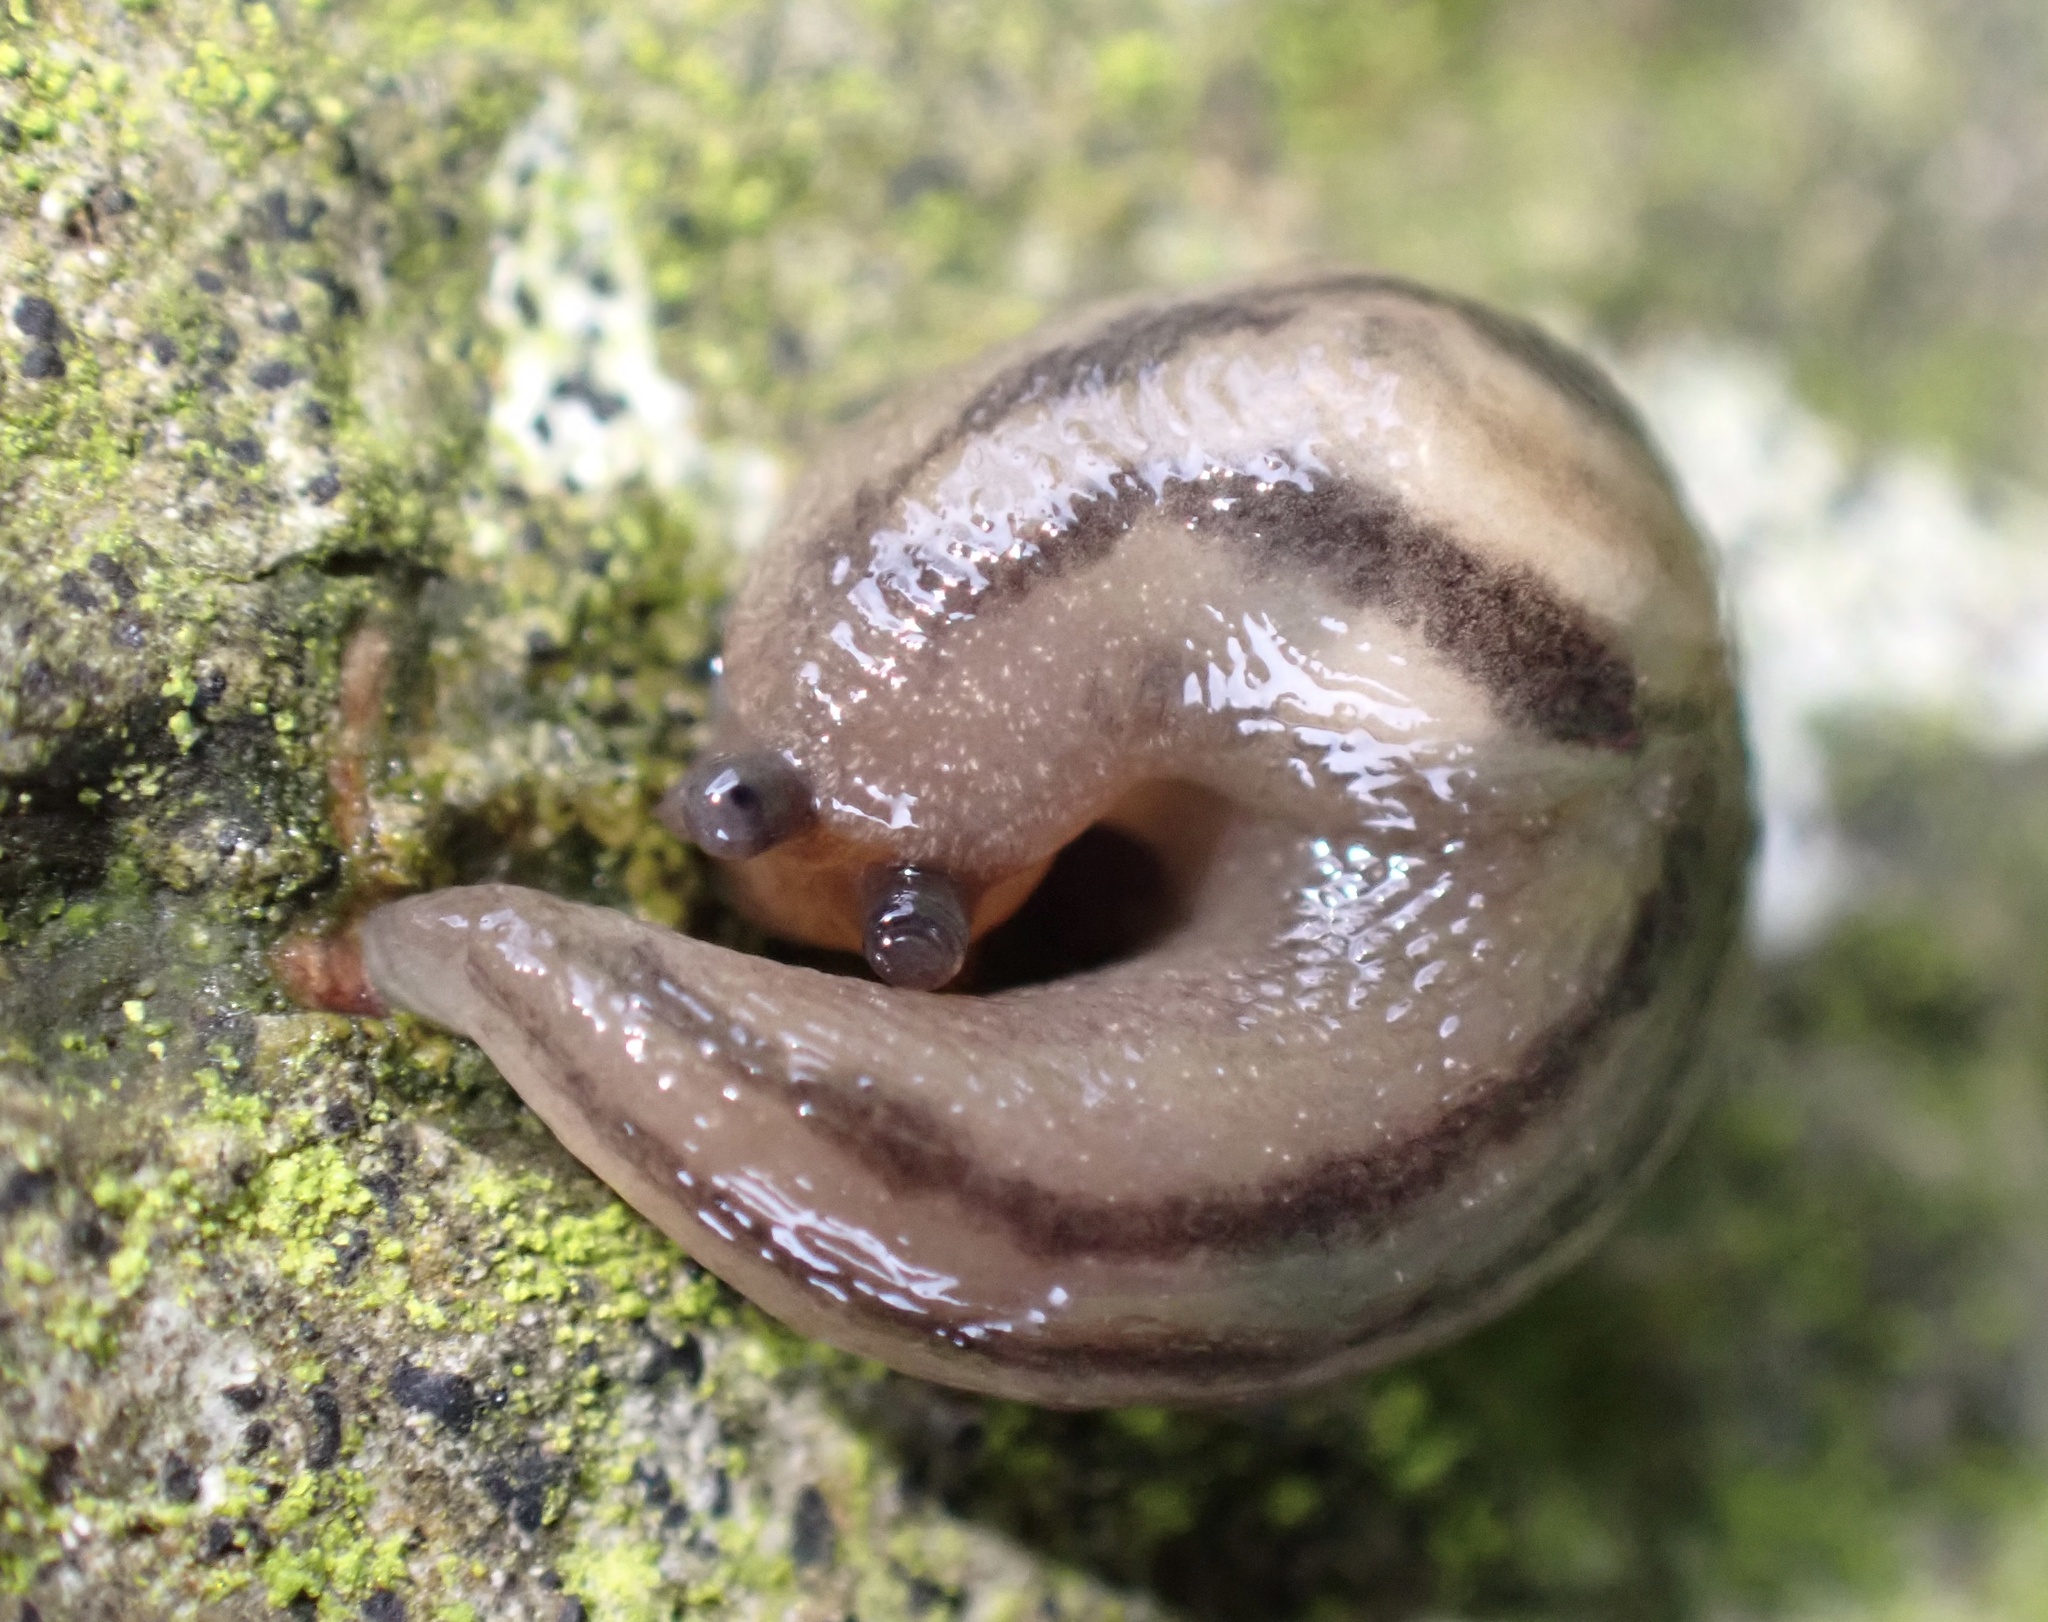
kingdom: Animalia
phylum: Mollusca
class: Gastropoda
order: Stylommatophora
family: Limacidae
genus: Ambigolimax
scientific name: Ambigolimax valentianus
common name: Greenhouse slug
